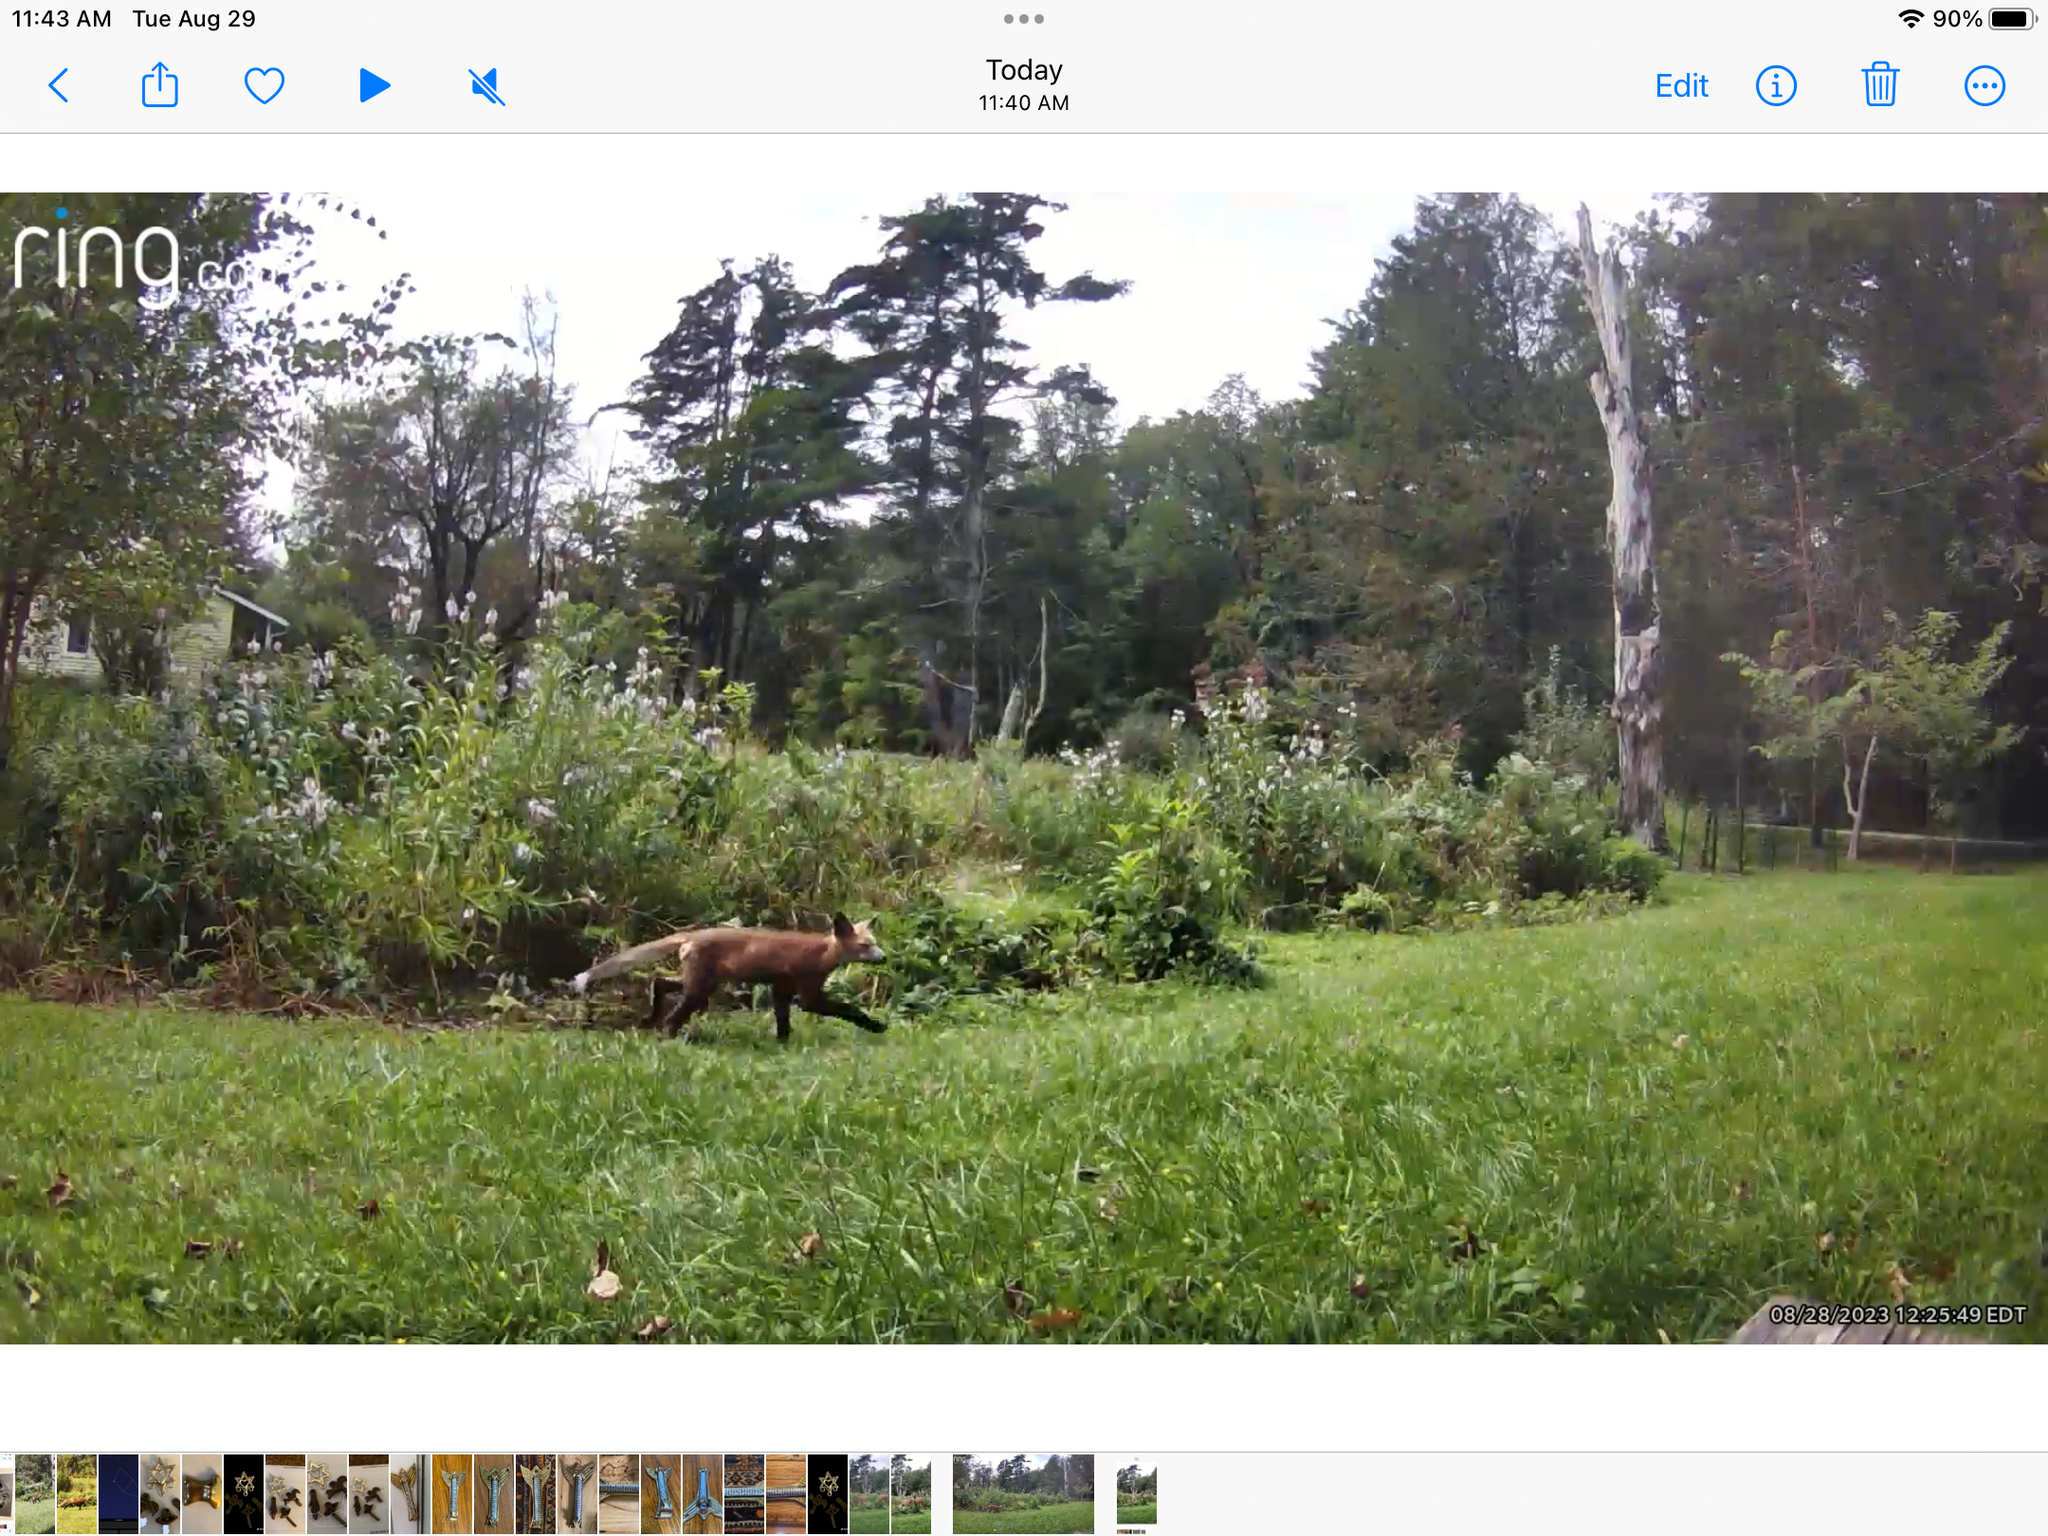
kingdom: Animalia
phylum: Chordata
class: Mammalia
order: Carnivora
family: Canidae
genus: Vulpes
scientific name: Vulpes vulpes
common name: Red fox
